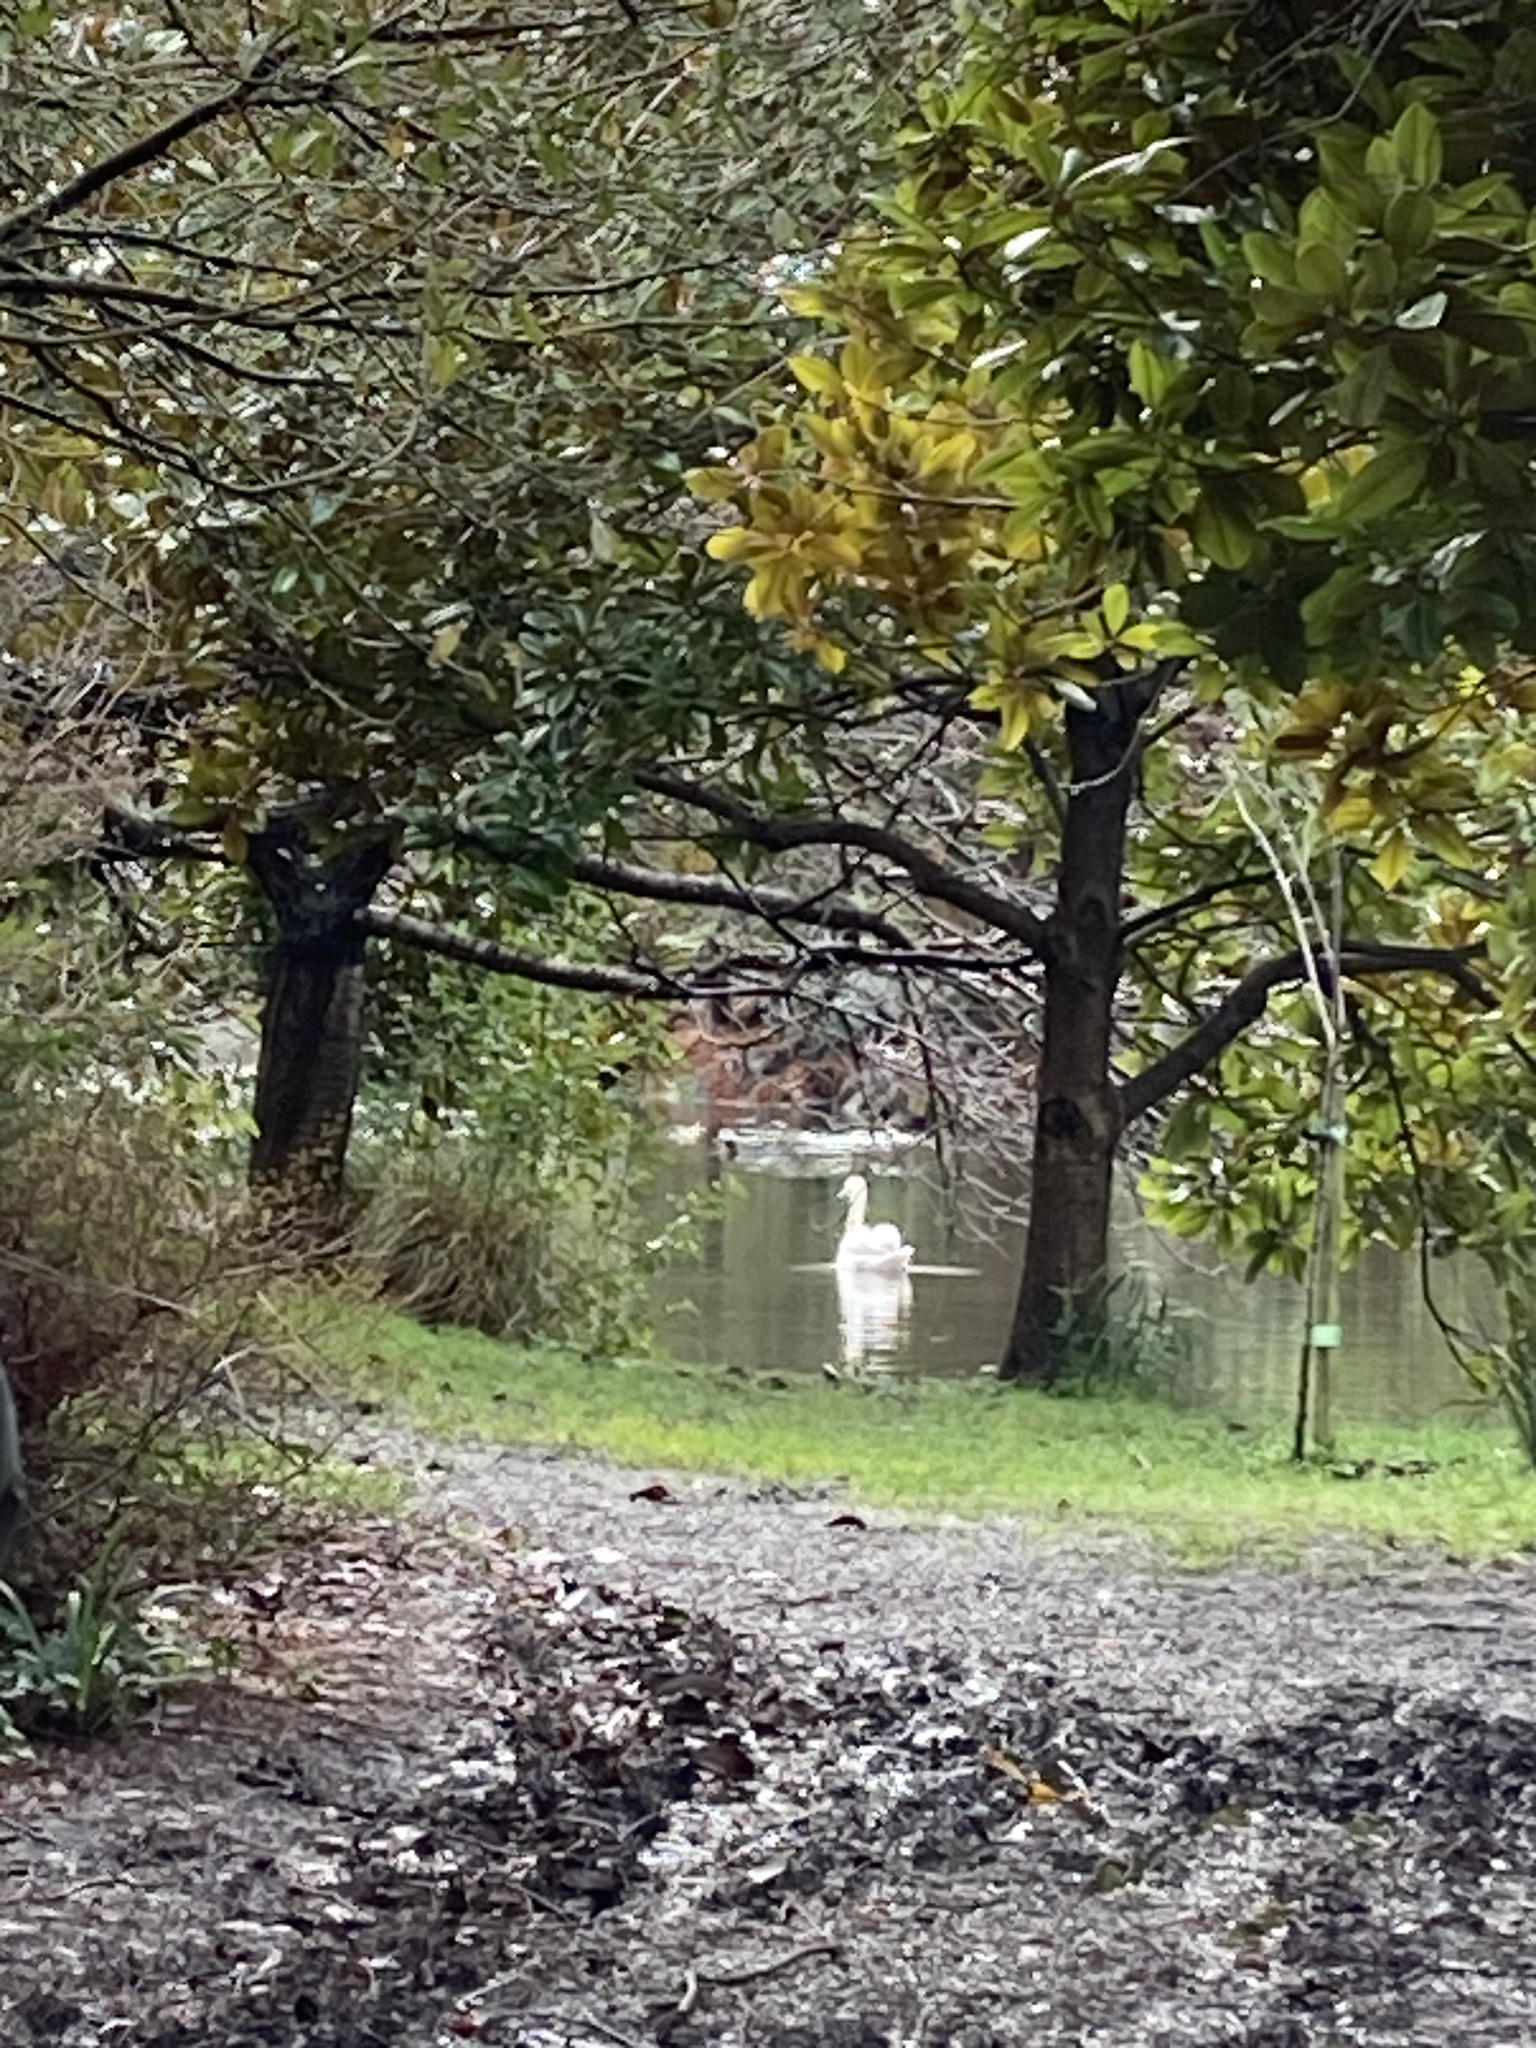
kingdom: Animalia
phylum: Chordata
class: Aves
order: Anseriformes
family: Anatidae
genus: Cygnus
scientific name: Cygnus olor
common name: Mute swan
